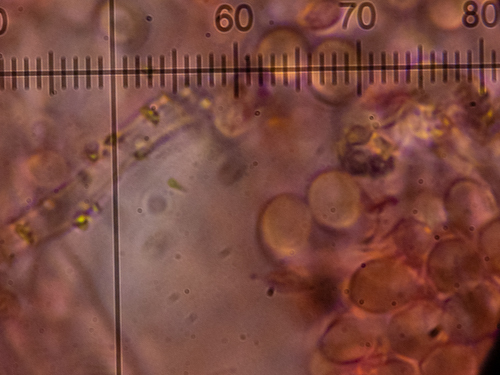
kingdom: Fungi
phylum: Basidiomycota
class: Agaricomycetes
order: Hymenochaetales
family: Schizoporaceae
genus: Xylodon
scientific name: Xylodon raduloides
